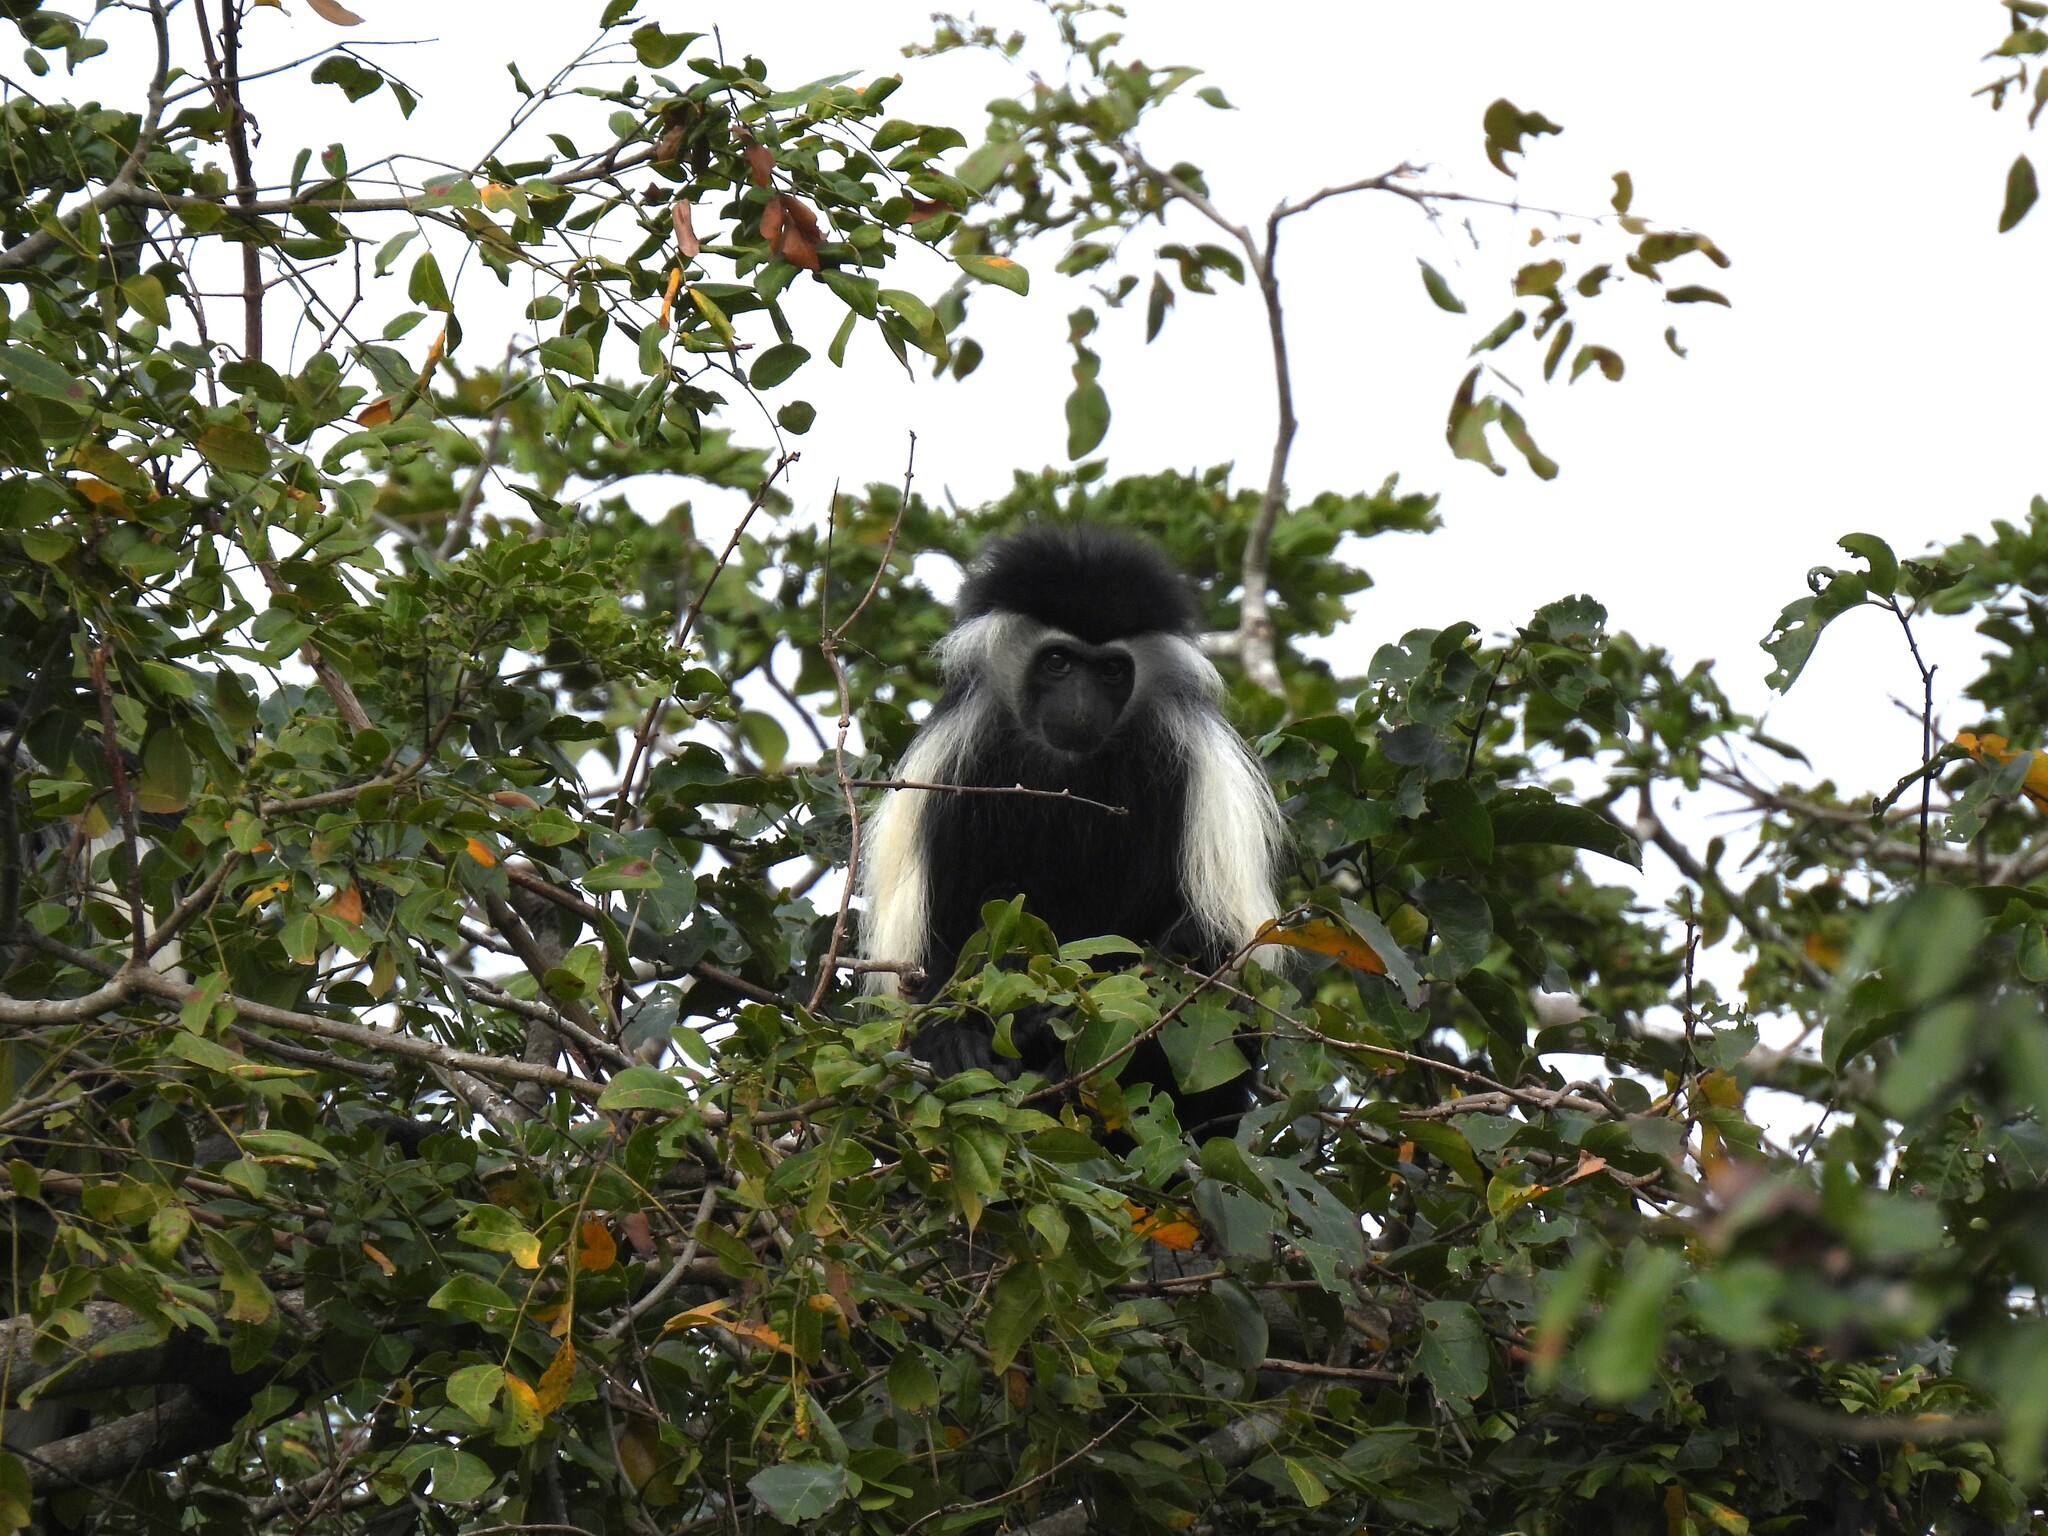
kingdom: Animalia
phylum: Chordata
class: Mammalia
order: Primates
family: Cercopithecidae
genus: Colobus
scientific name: Colobus angolensis
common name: Angola colobus
